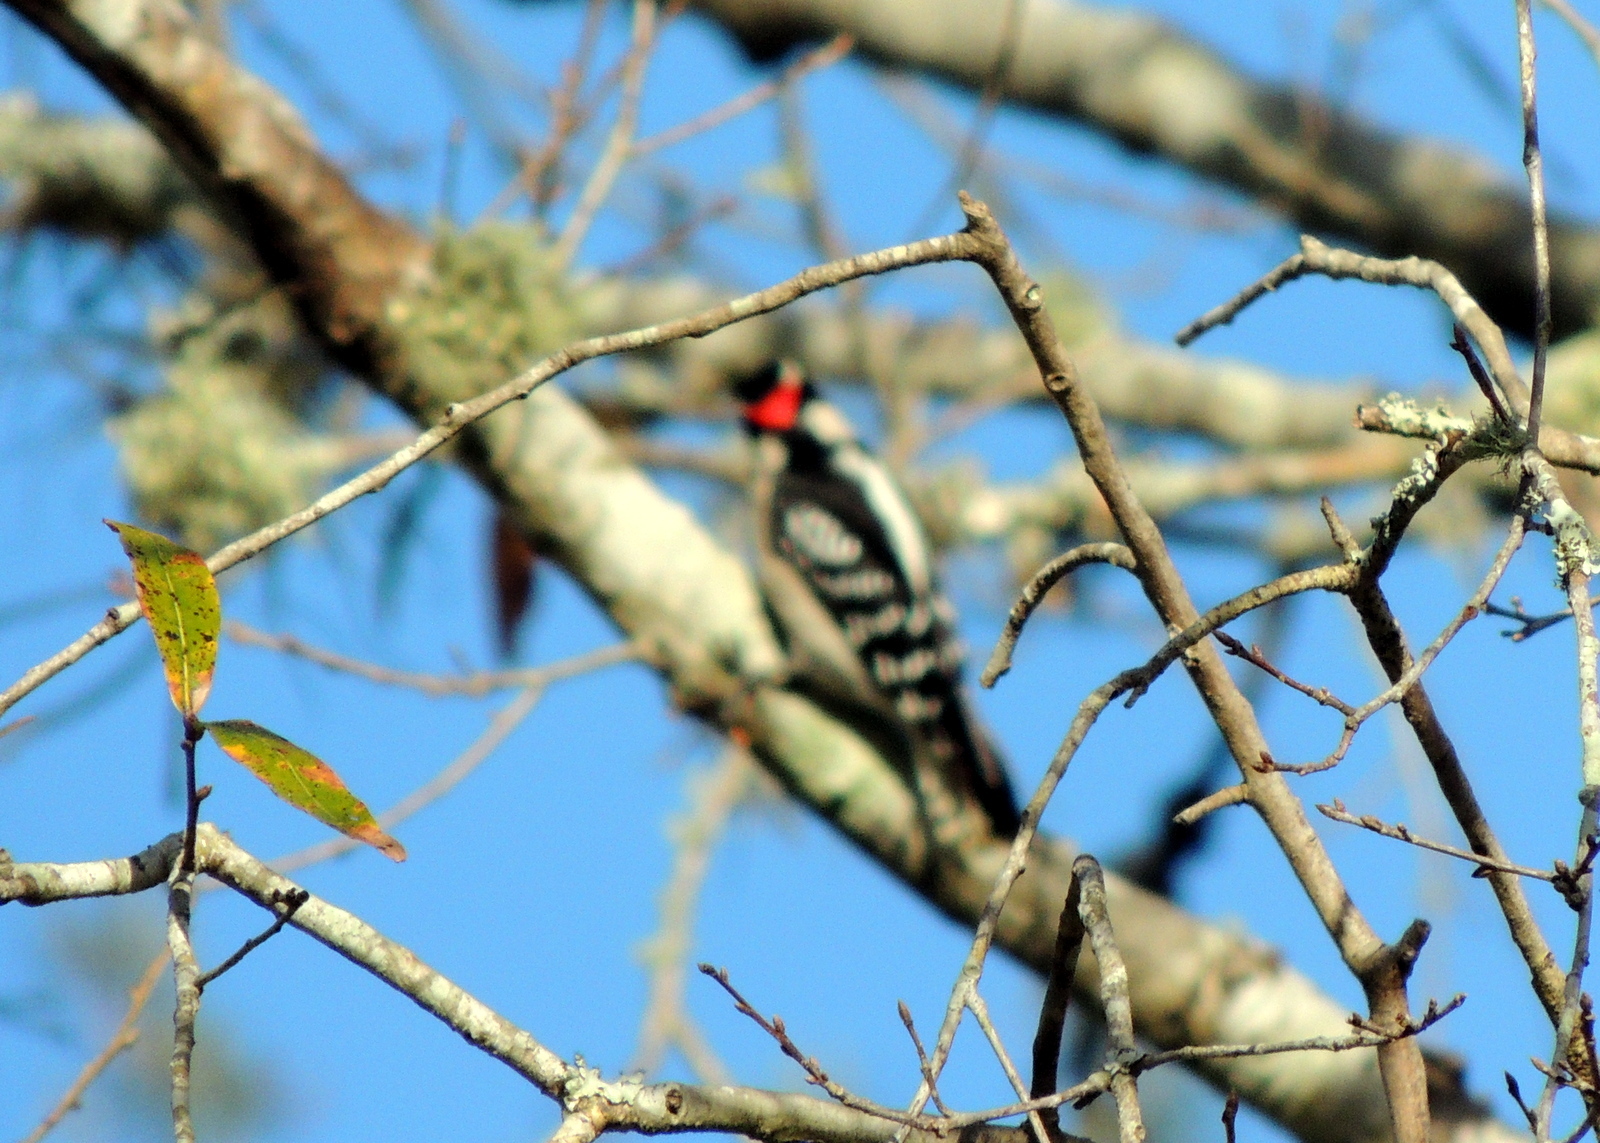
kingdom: Animalia
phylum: Chordata
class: Aves
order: Piciformes
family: Picidae
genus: Dryobates
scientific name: Dryobates pubescens
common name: Downy woodpecker
